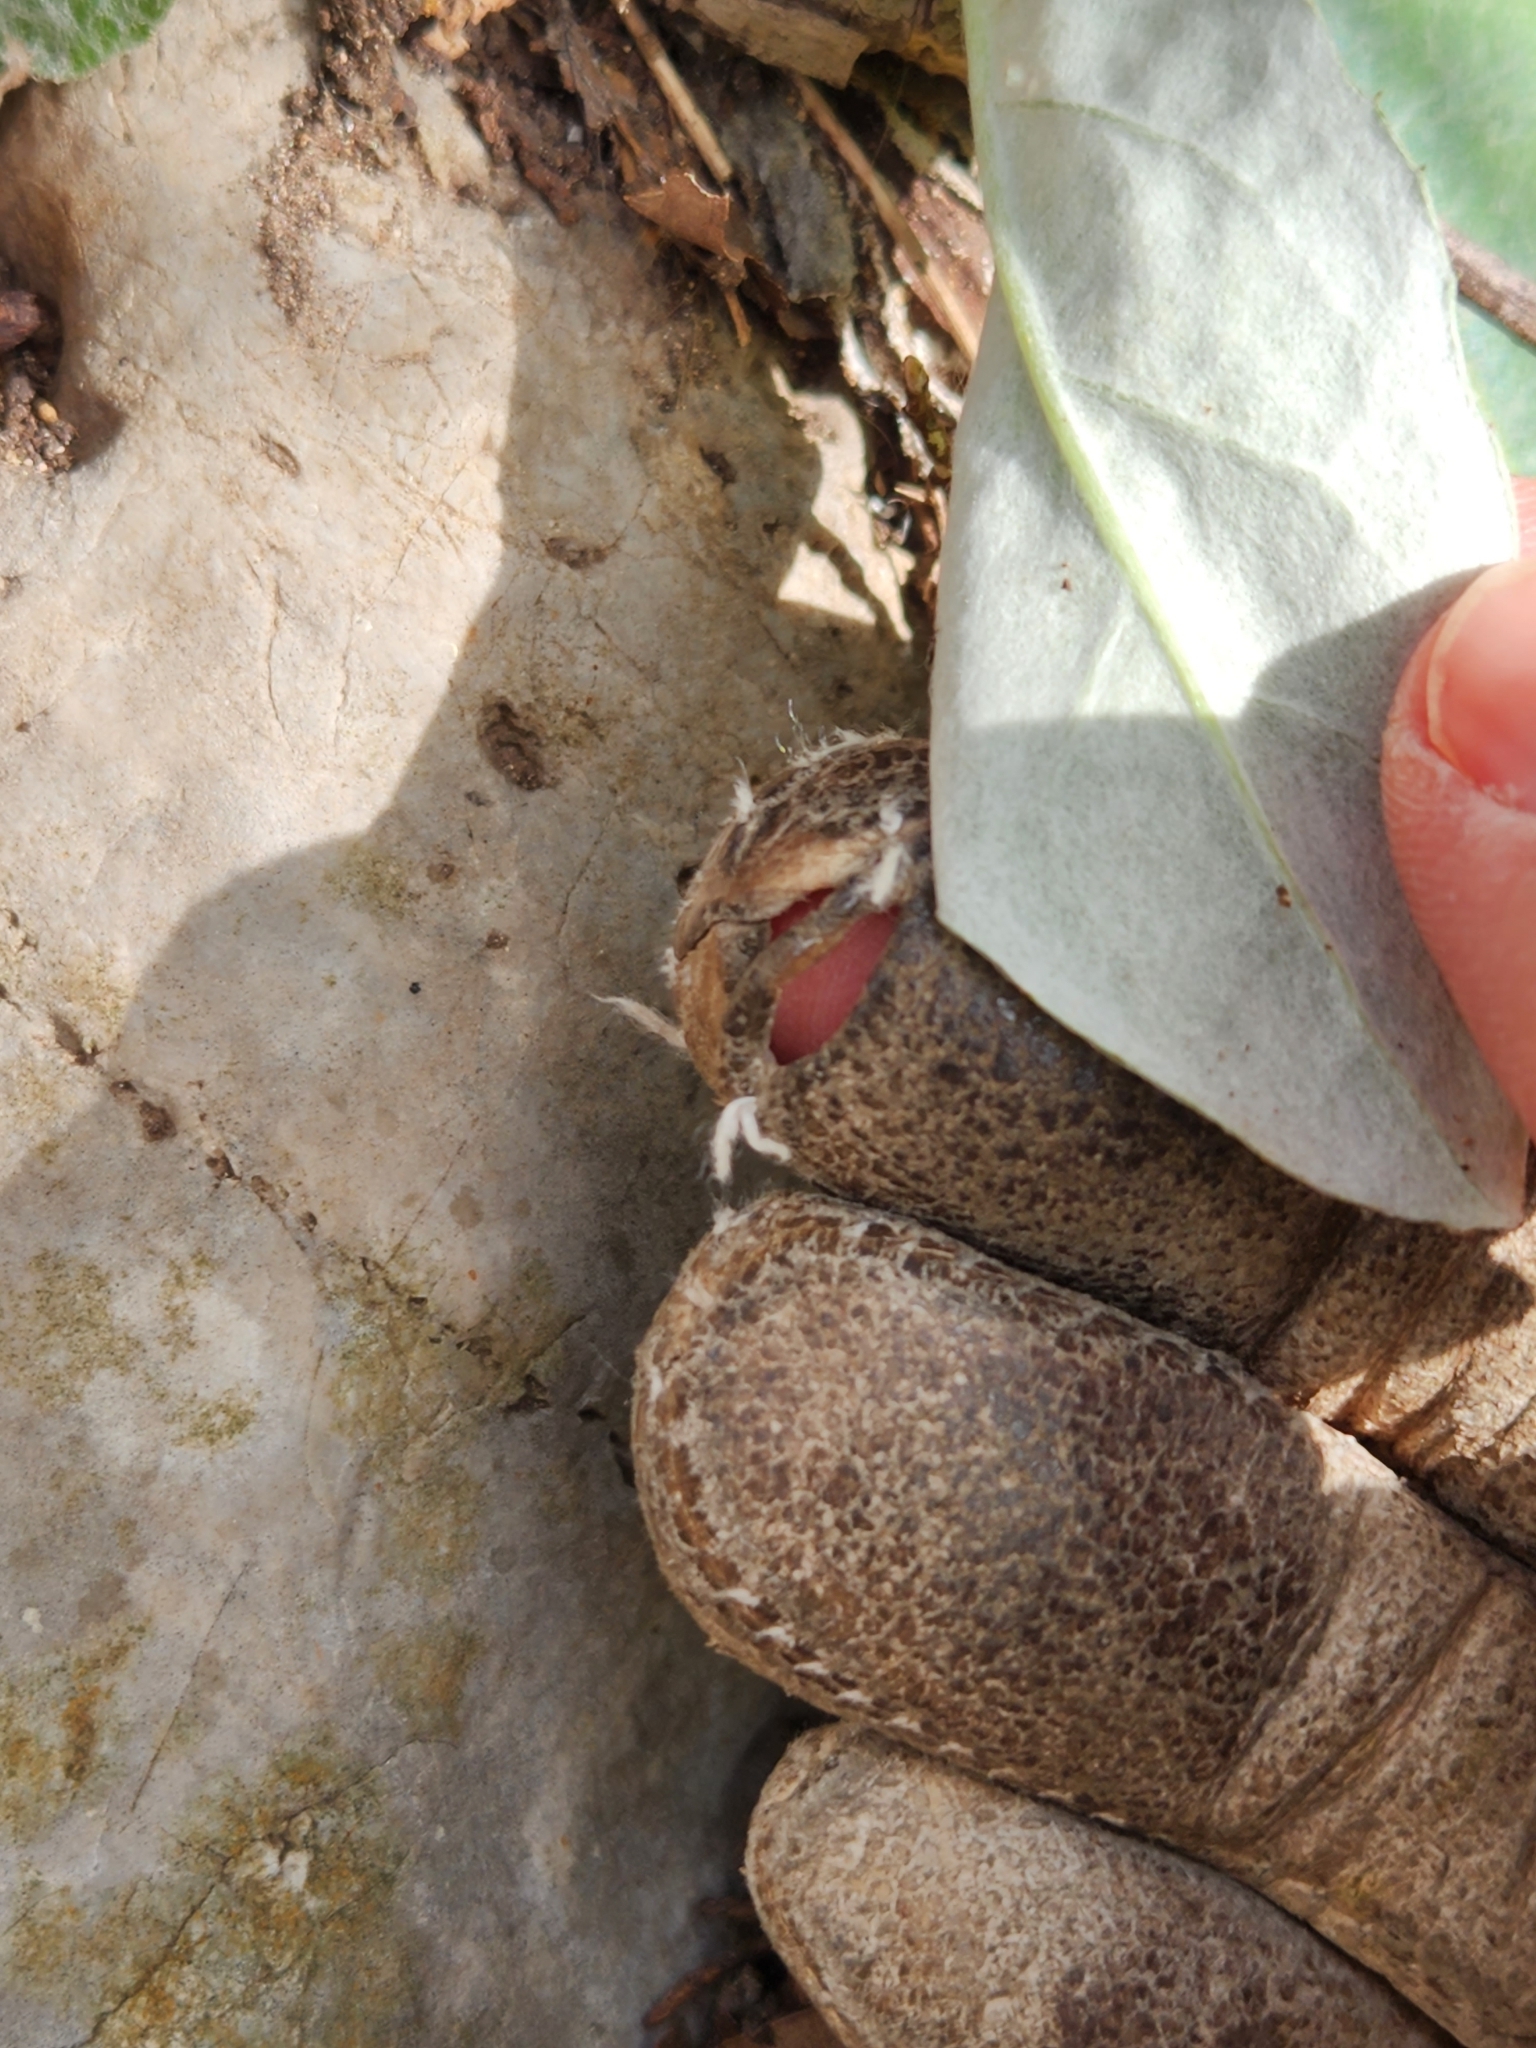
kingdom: Plantae
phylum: Tracheophyta
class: Magnoliopsida
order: Asterales
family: Asteraceae
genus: Chaptalia
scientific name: Chaptalia texana
